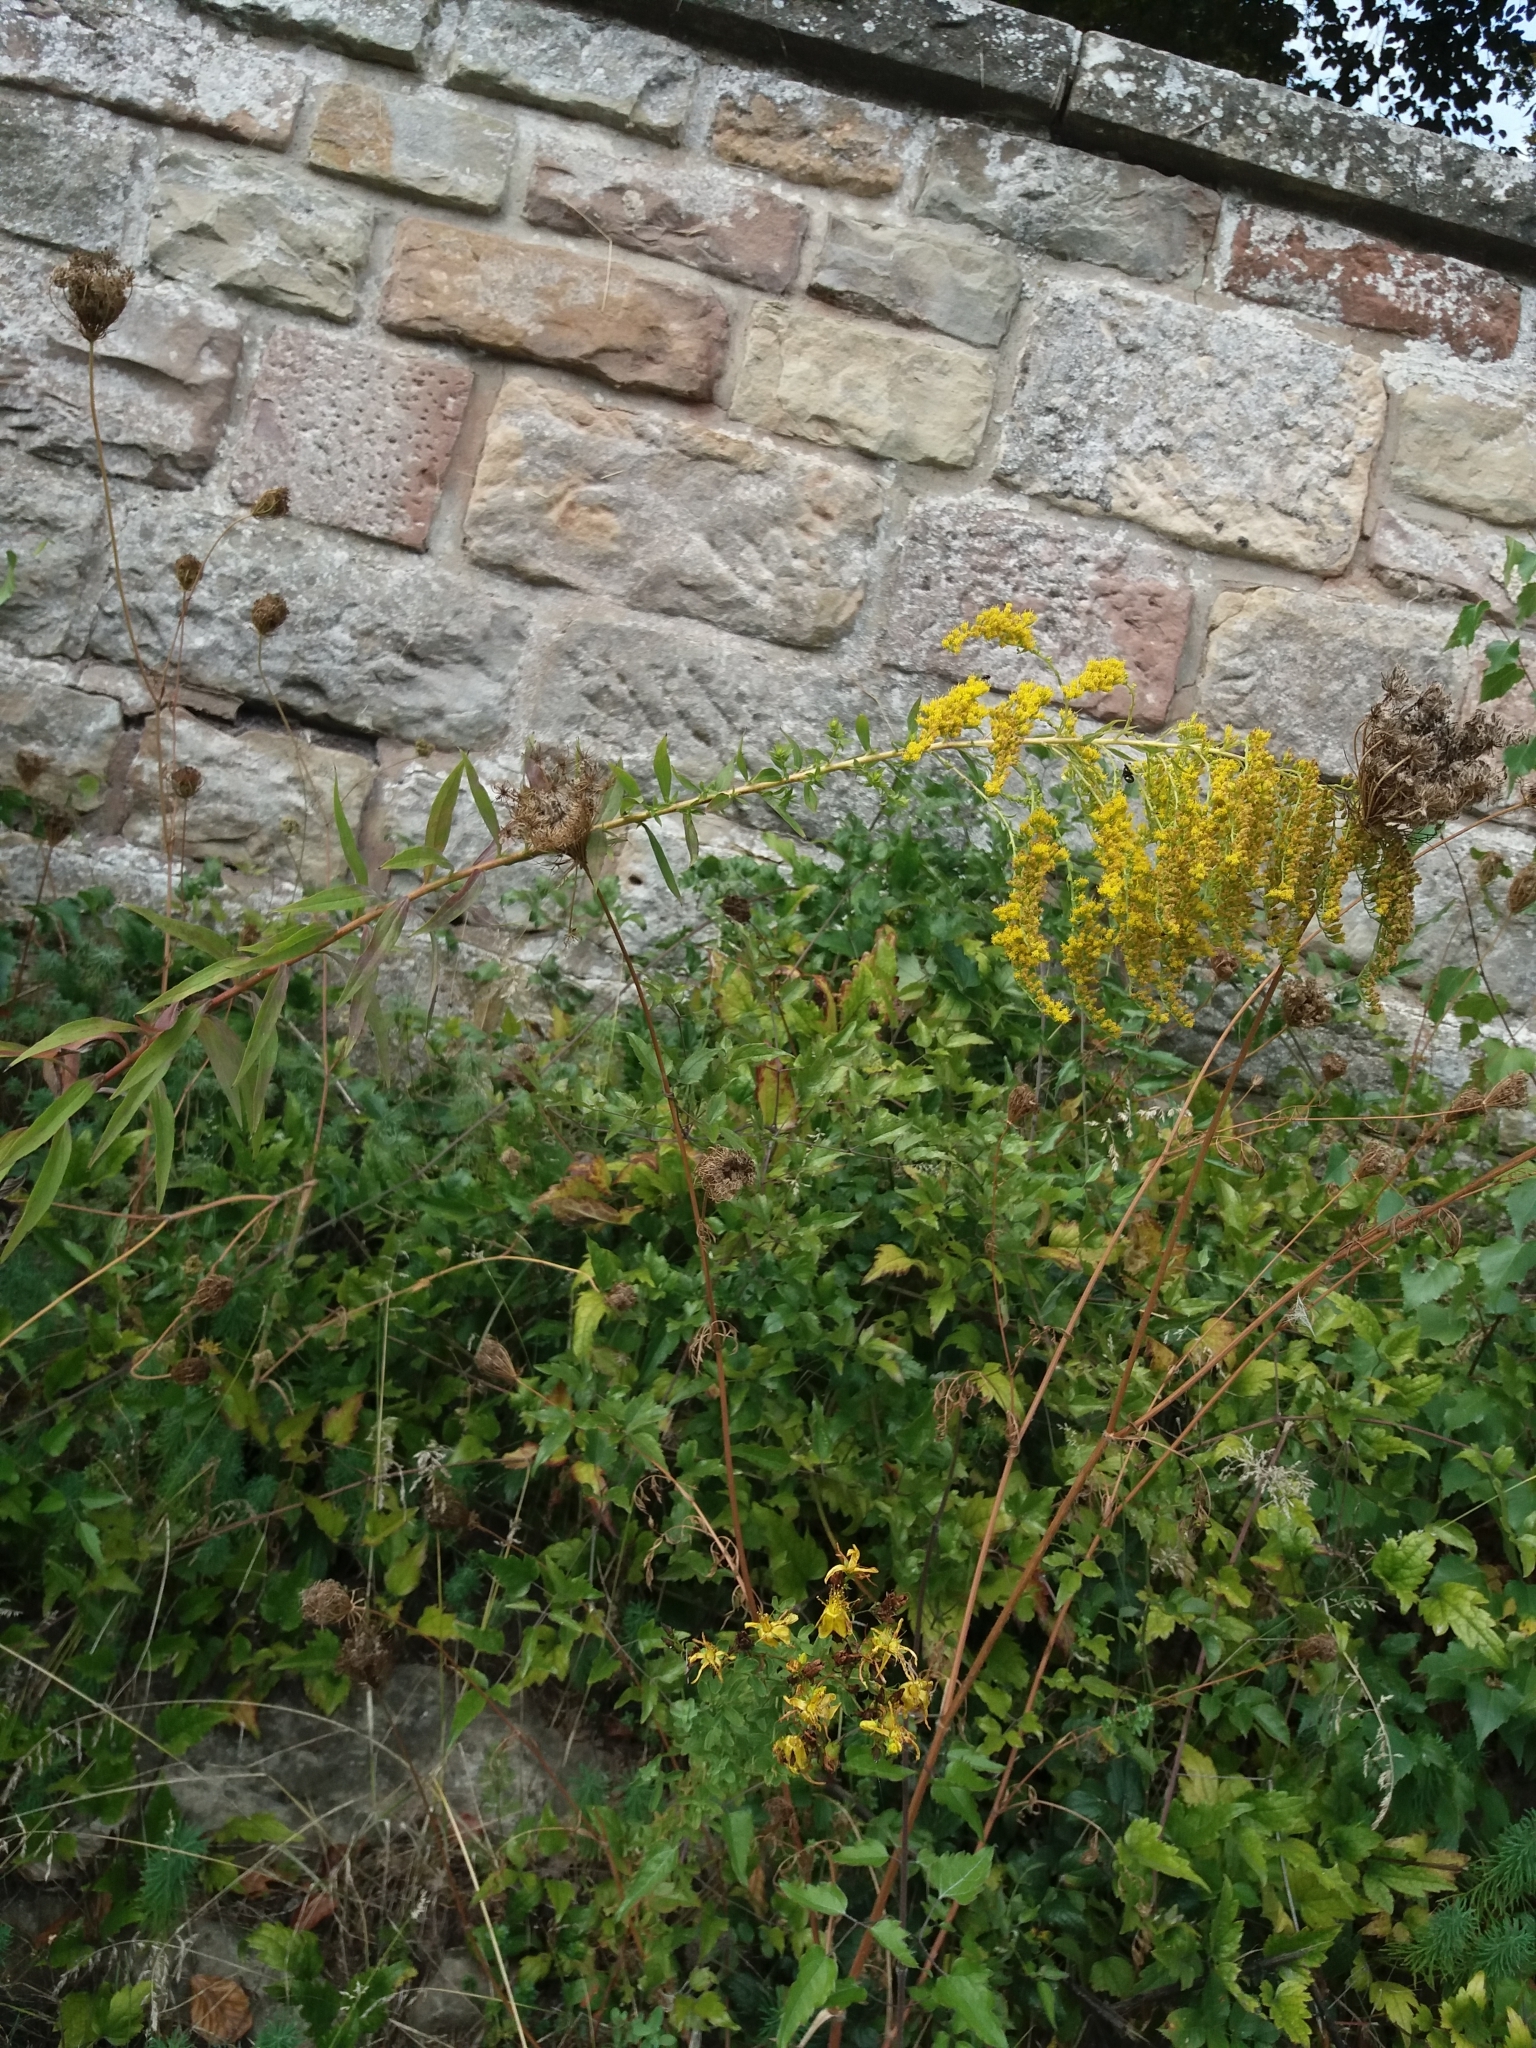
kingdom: Plantae
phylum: Tracheophyta
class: Magnoliopsida
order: Asterales
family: Asteraceae
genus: Solidago
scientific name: Solidago canadensis
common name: Canada goldenrod
